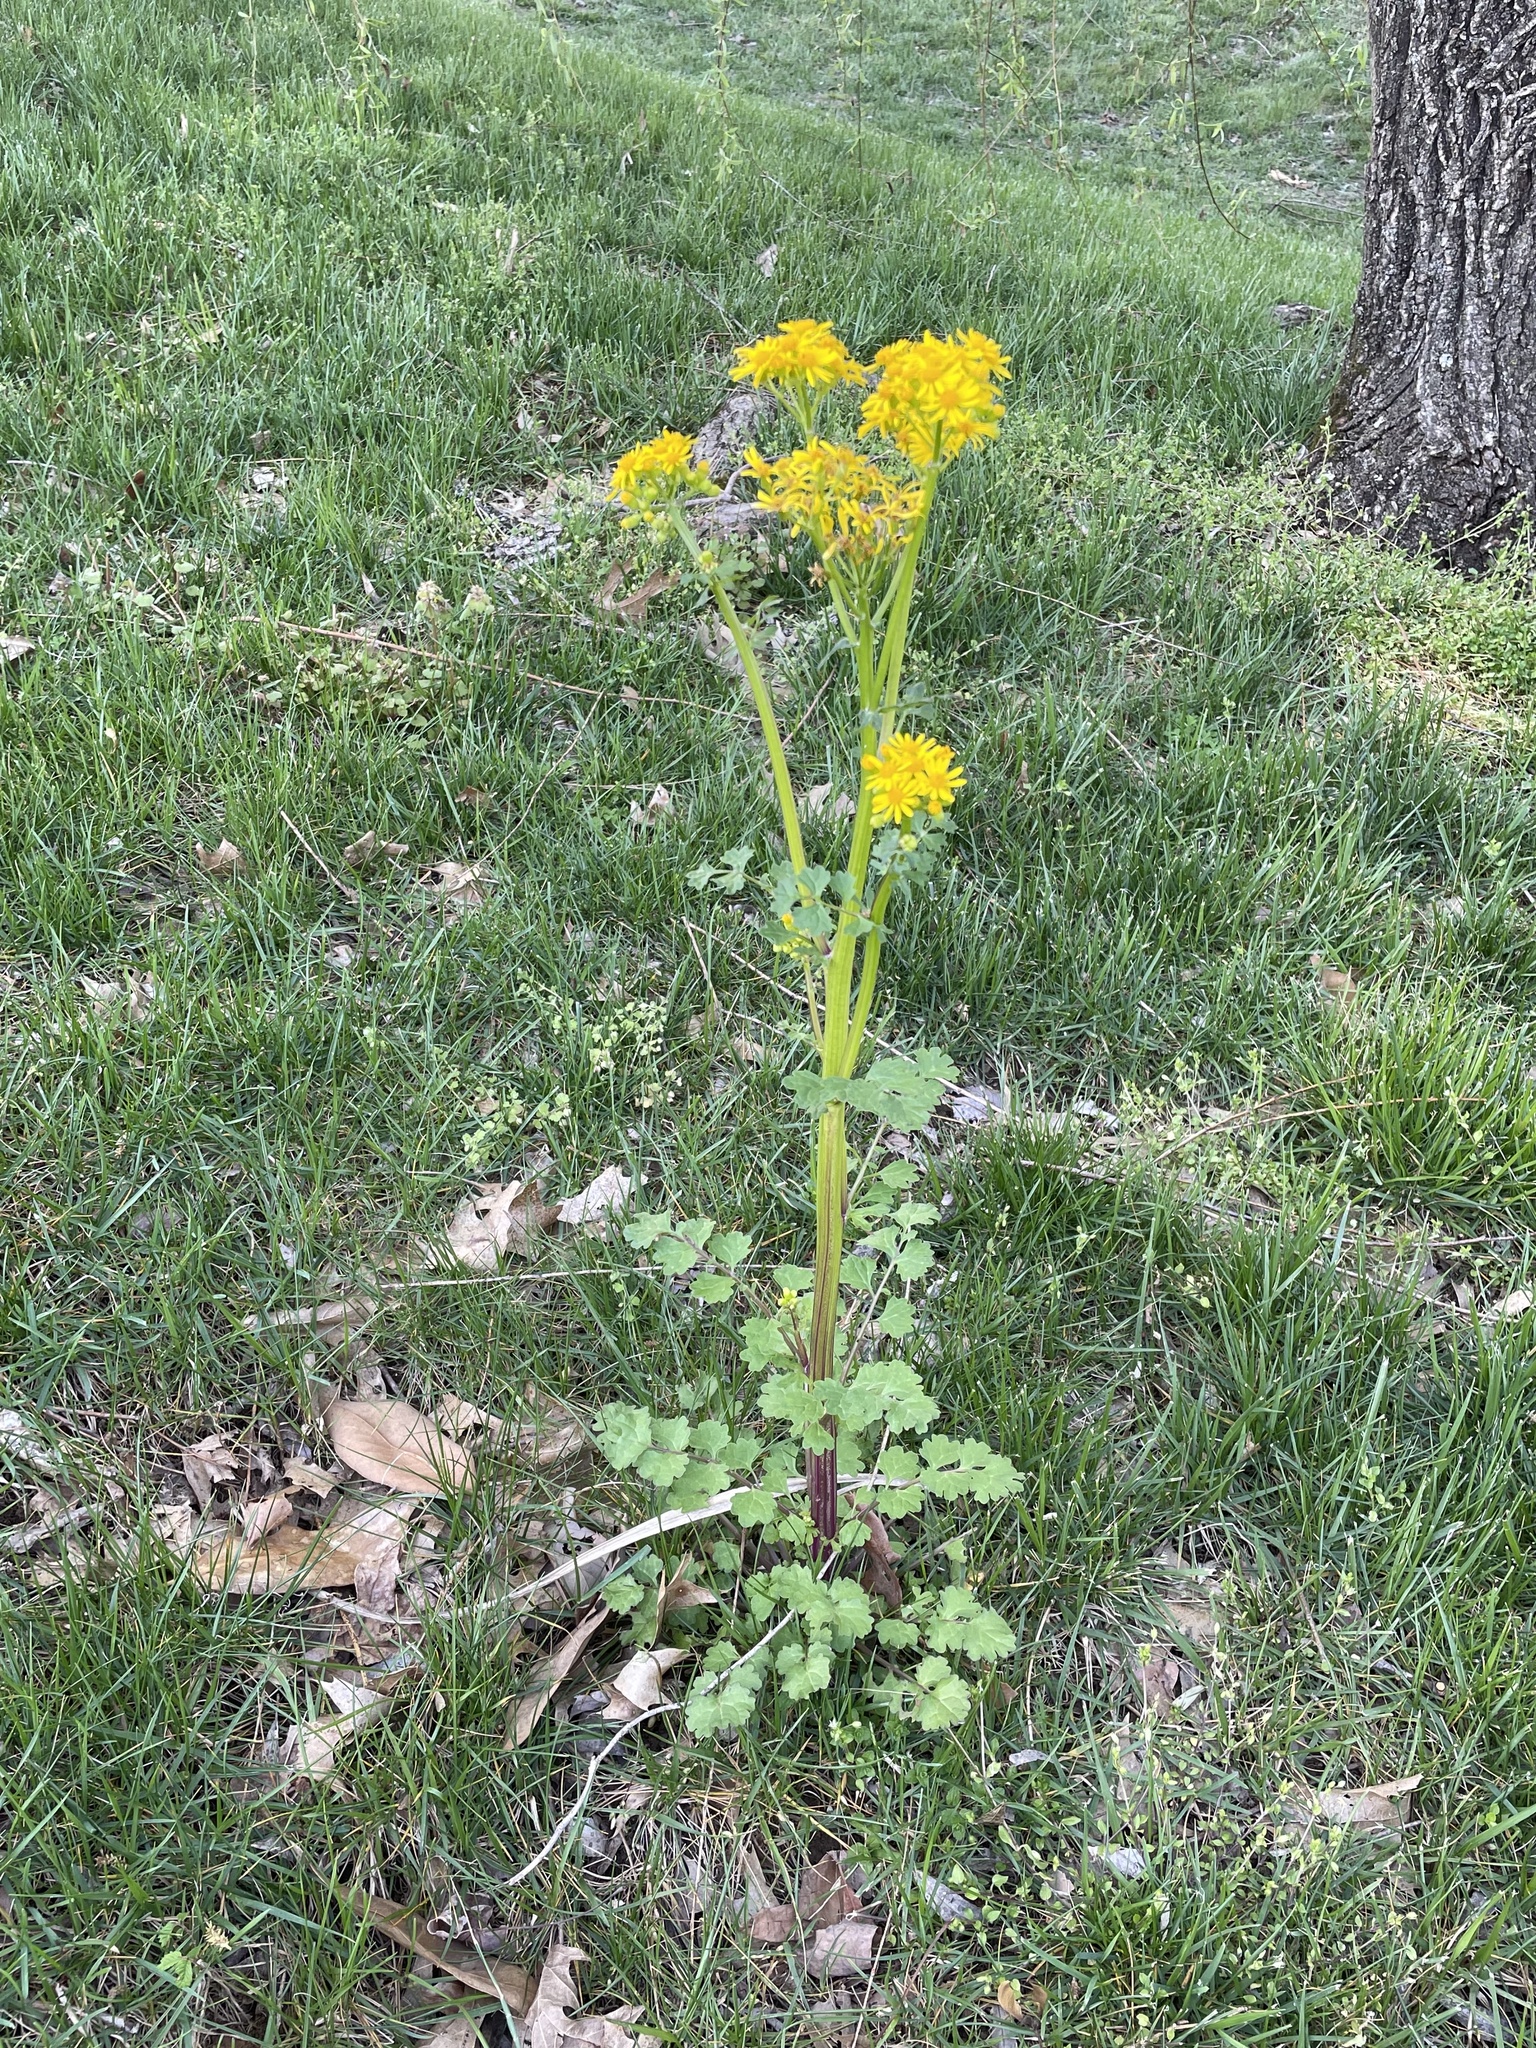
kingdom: Plantae
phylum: Tracheophyta
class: Magnoliopsida
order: Asterales
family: Asteraceae
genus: Packera
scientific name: Packera glabella
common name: Butterweed
